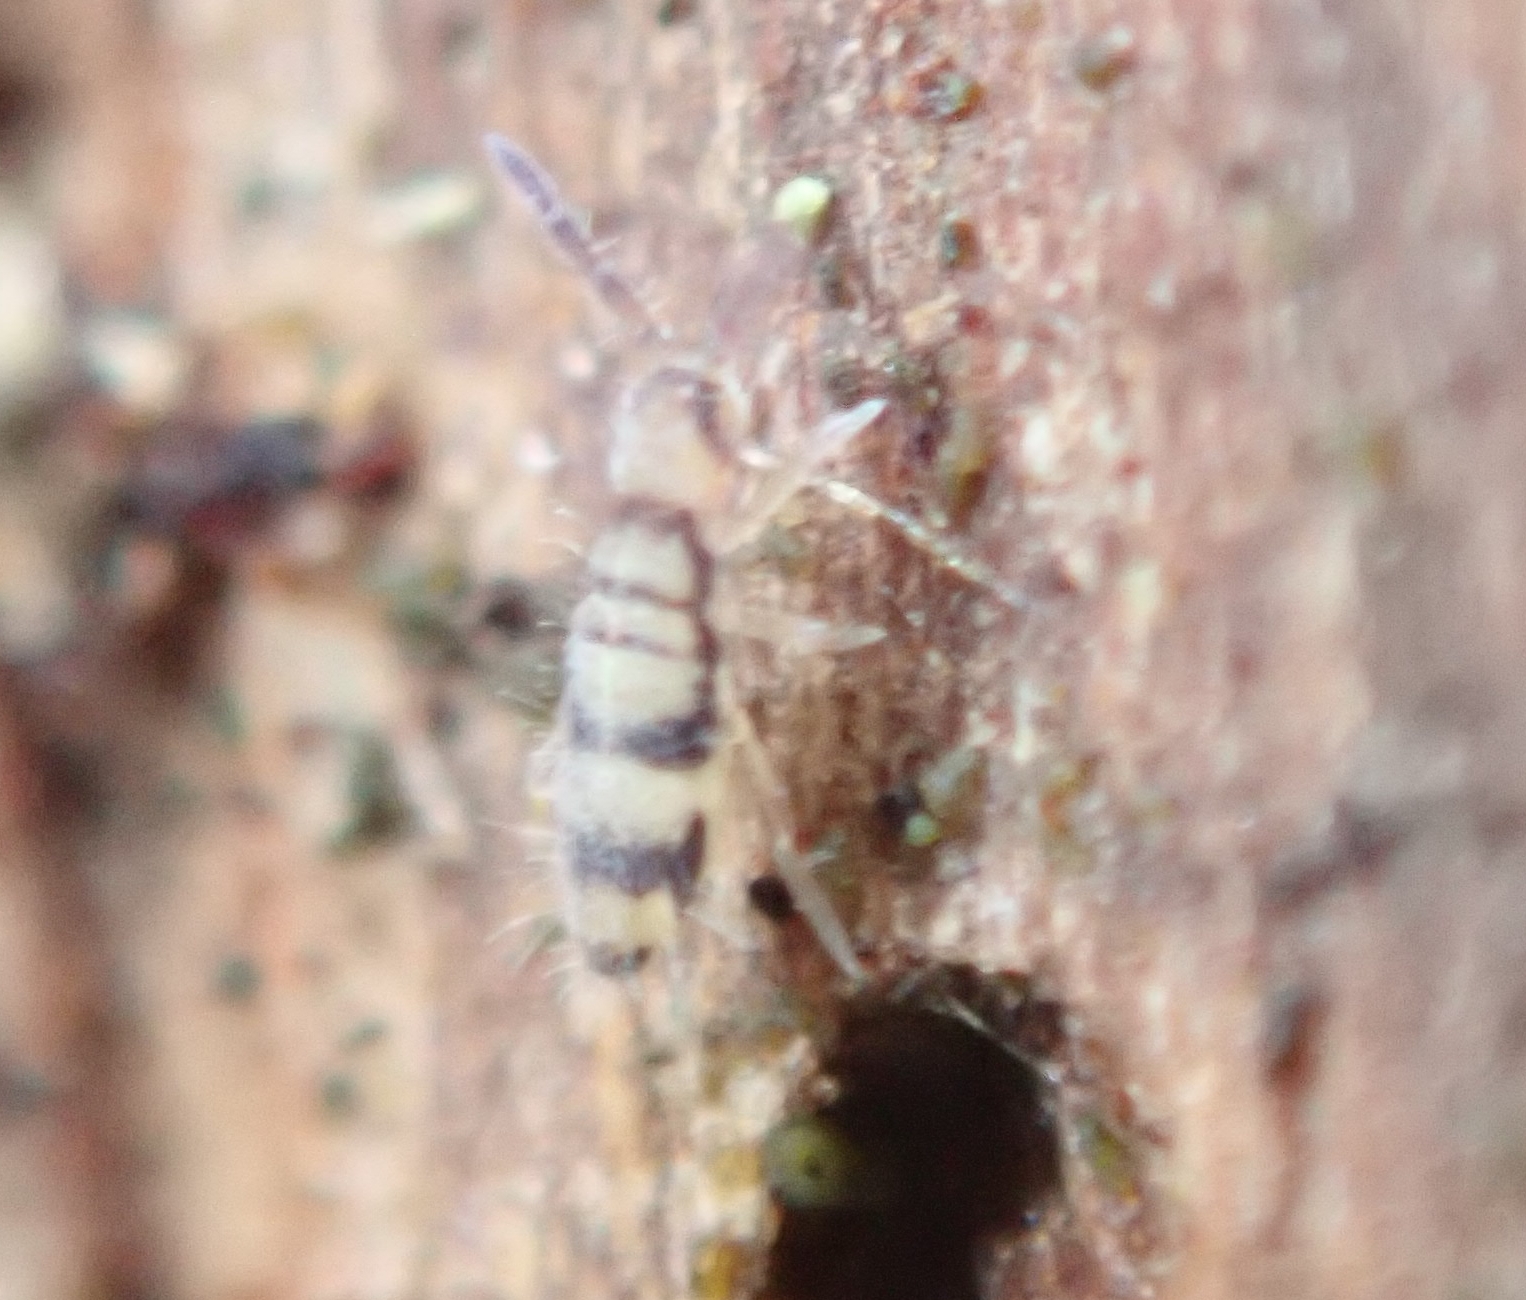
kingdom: Animalia
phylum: Arthropoda
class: Collembola
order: Entomobryomorpha
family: Entomobryidae
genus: Entomobrya
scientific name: Entomobrya corticalis
